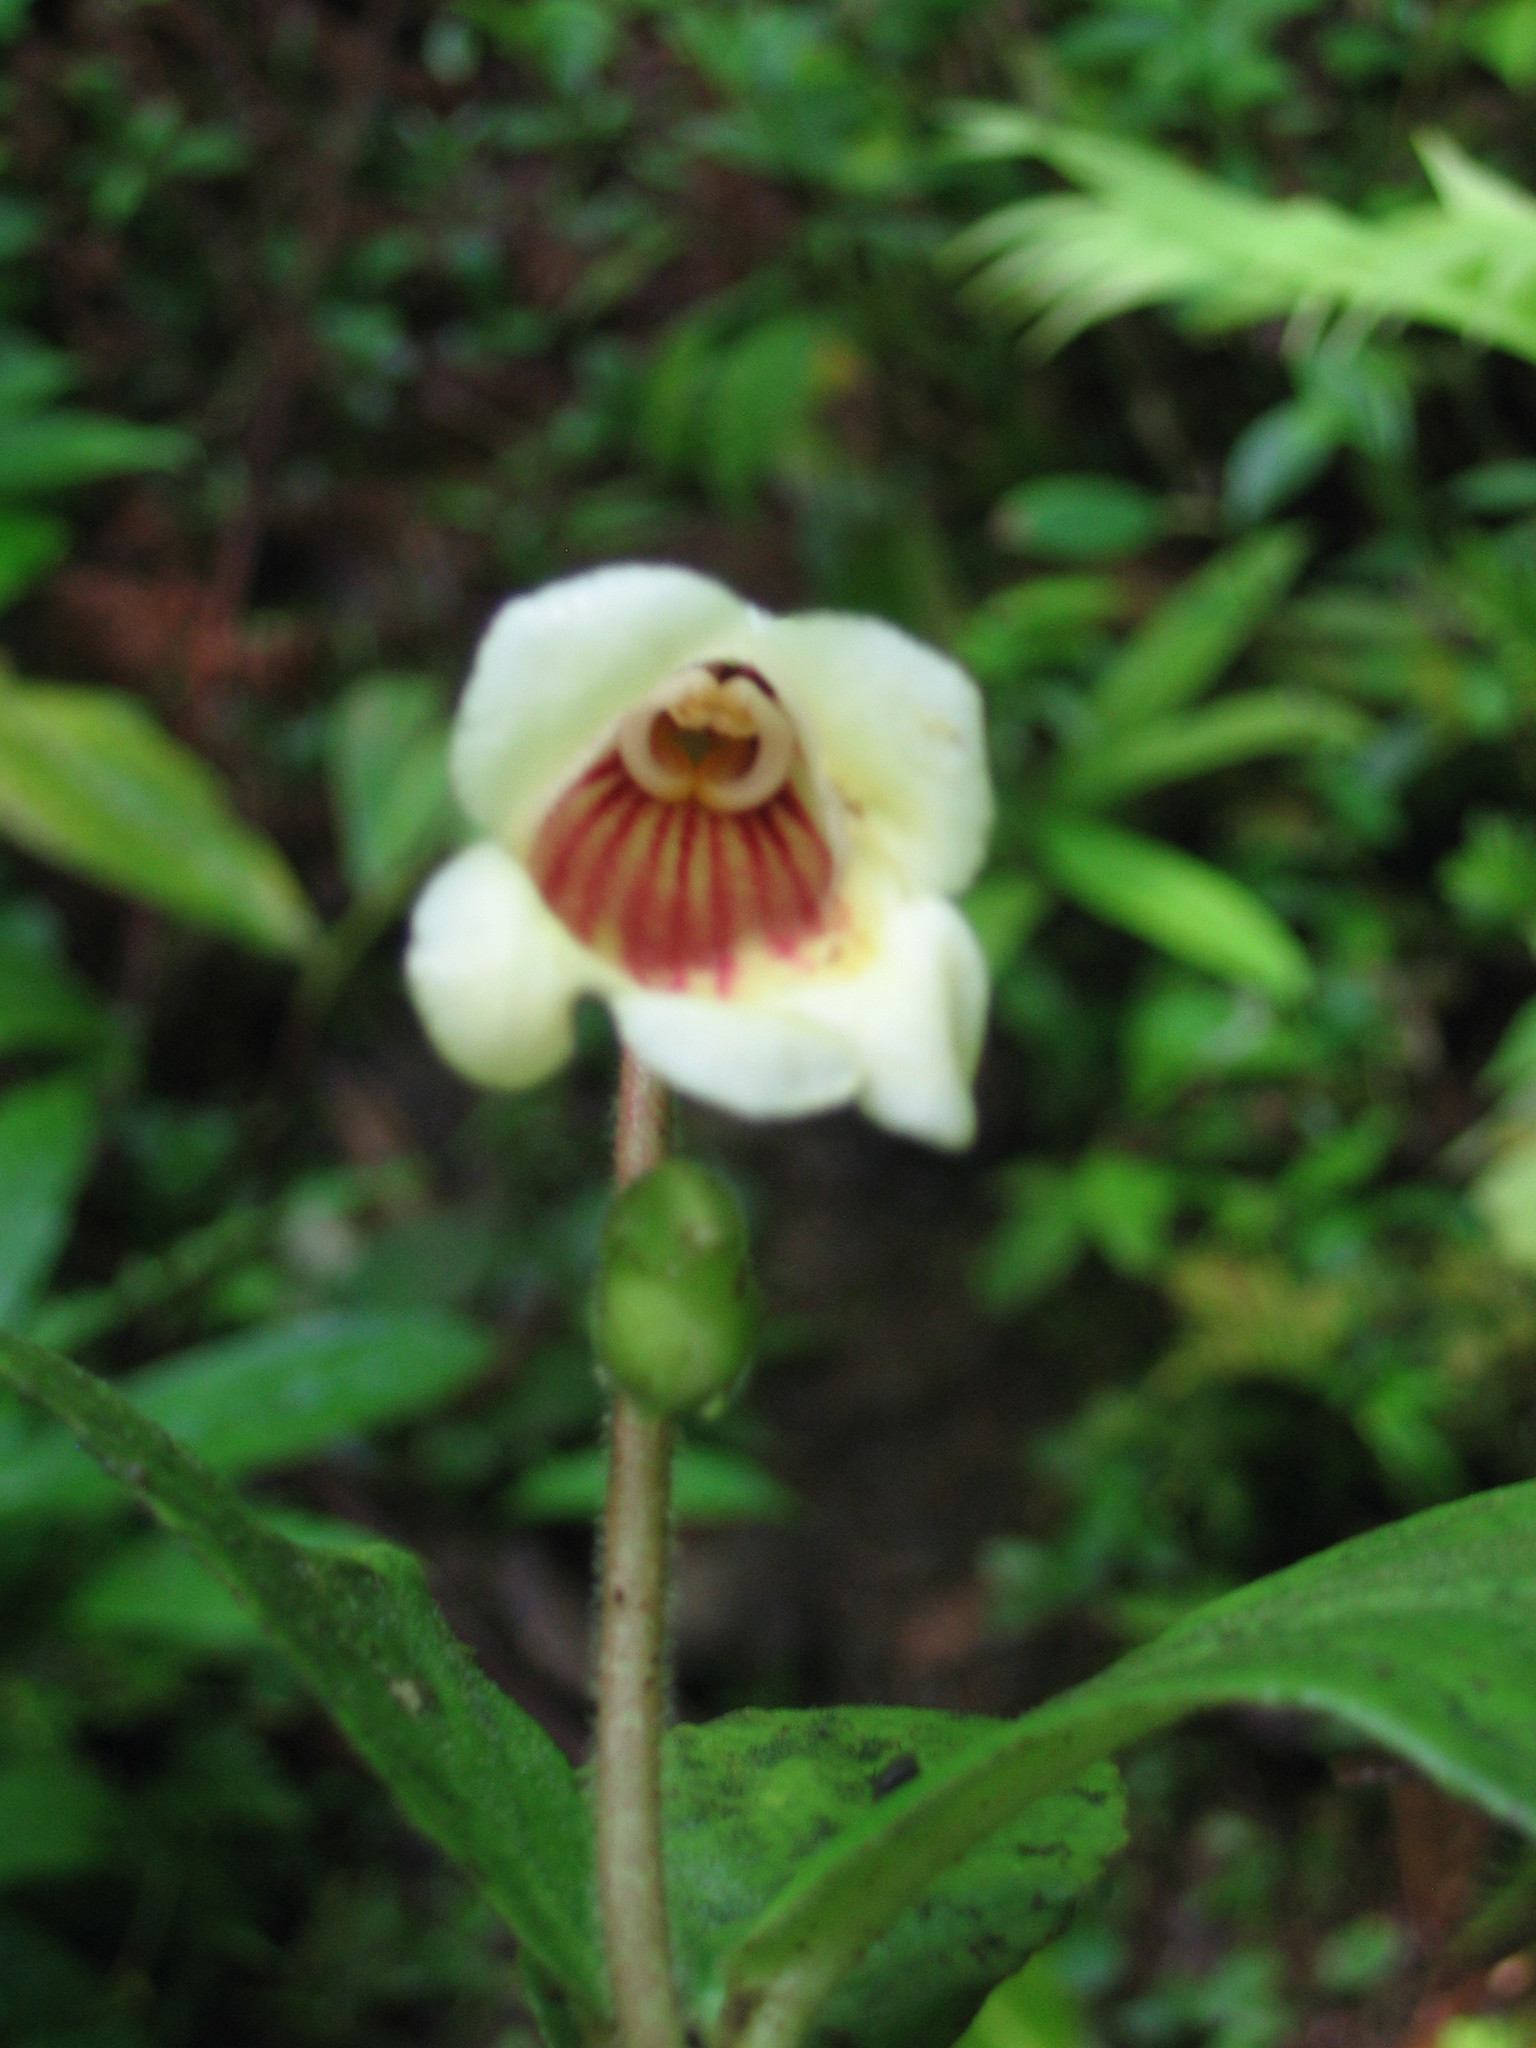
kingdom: Plantae
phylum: Tracheophyta
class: Magnoliopsida
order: Lamiales
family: Gesneriaceae
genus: Gasteranthus
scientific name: Gasteranthus delphinioides
